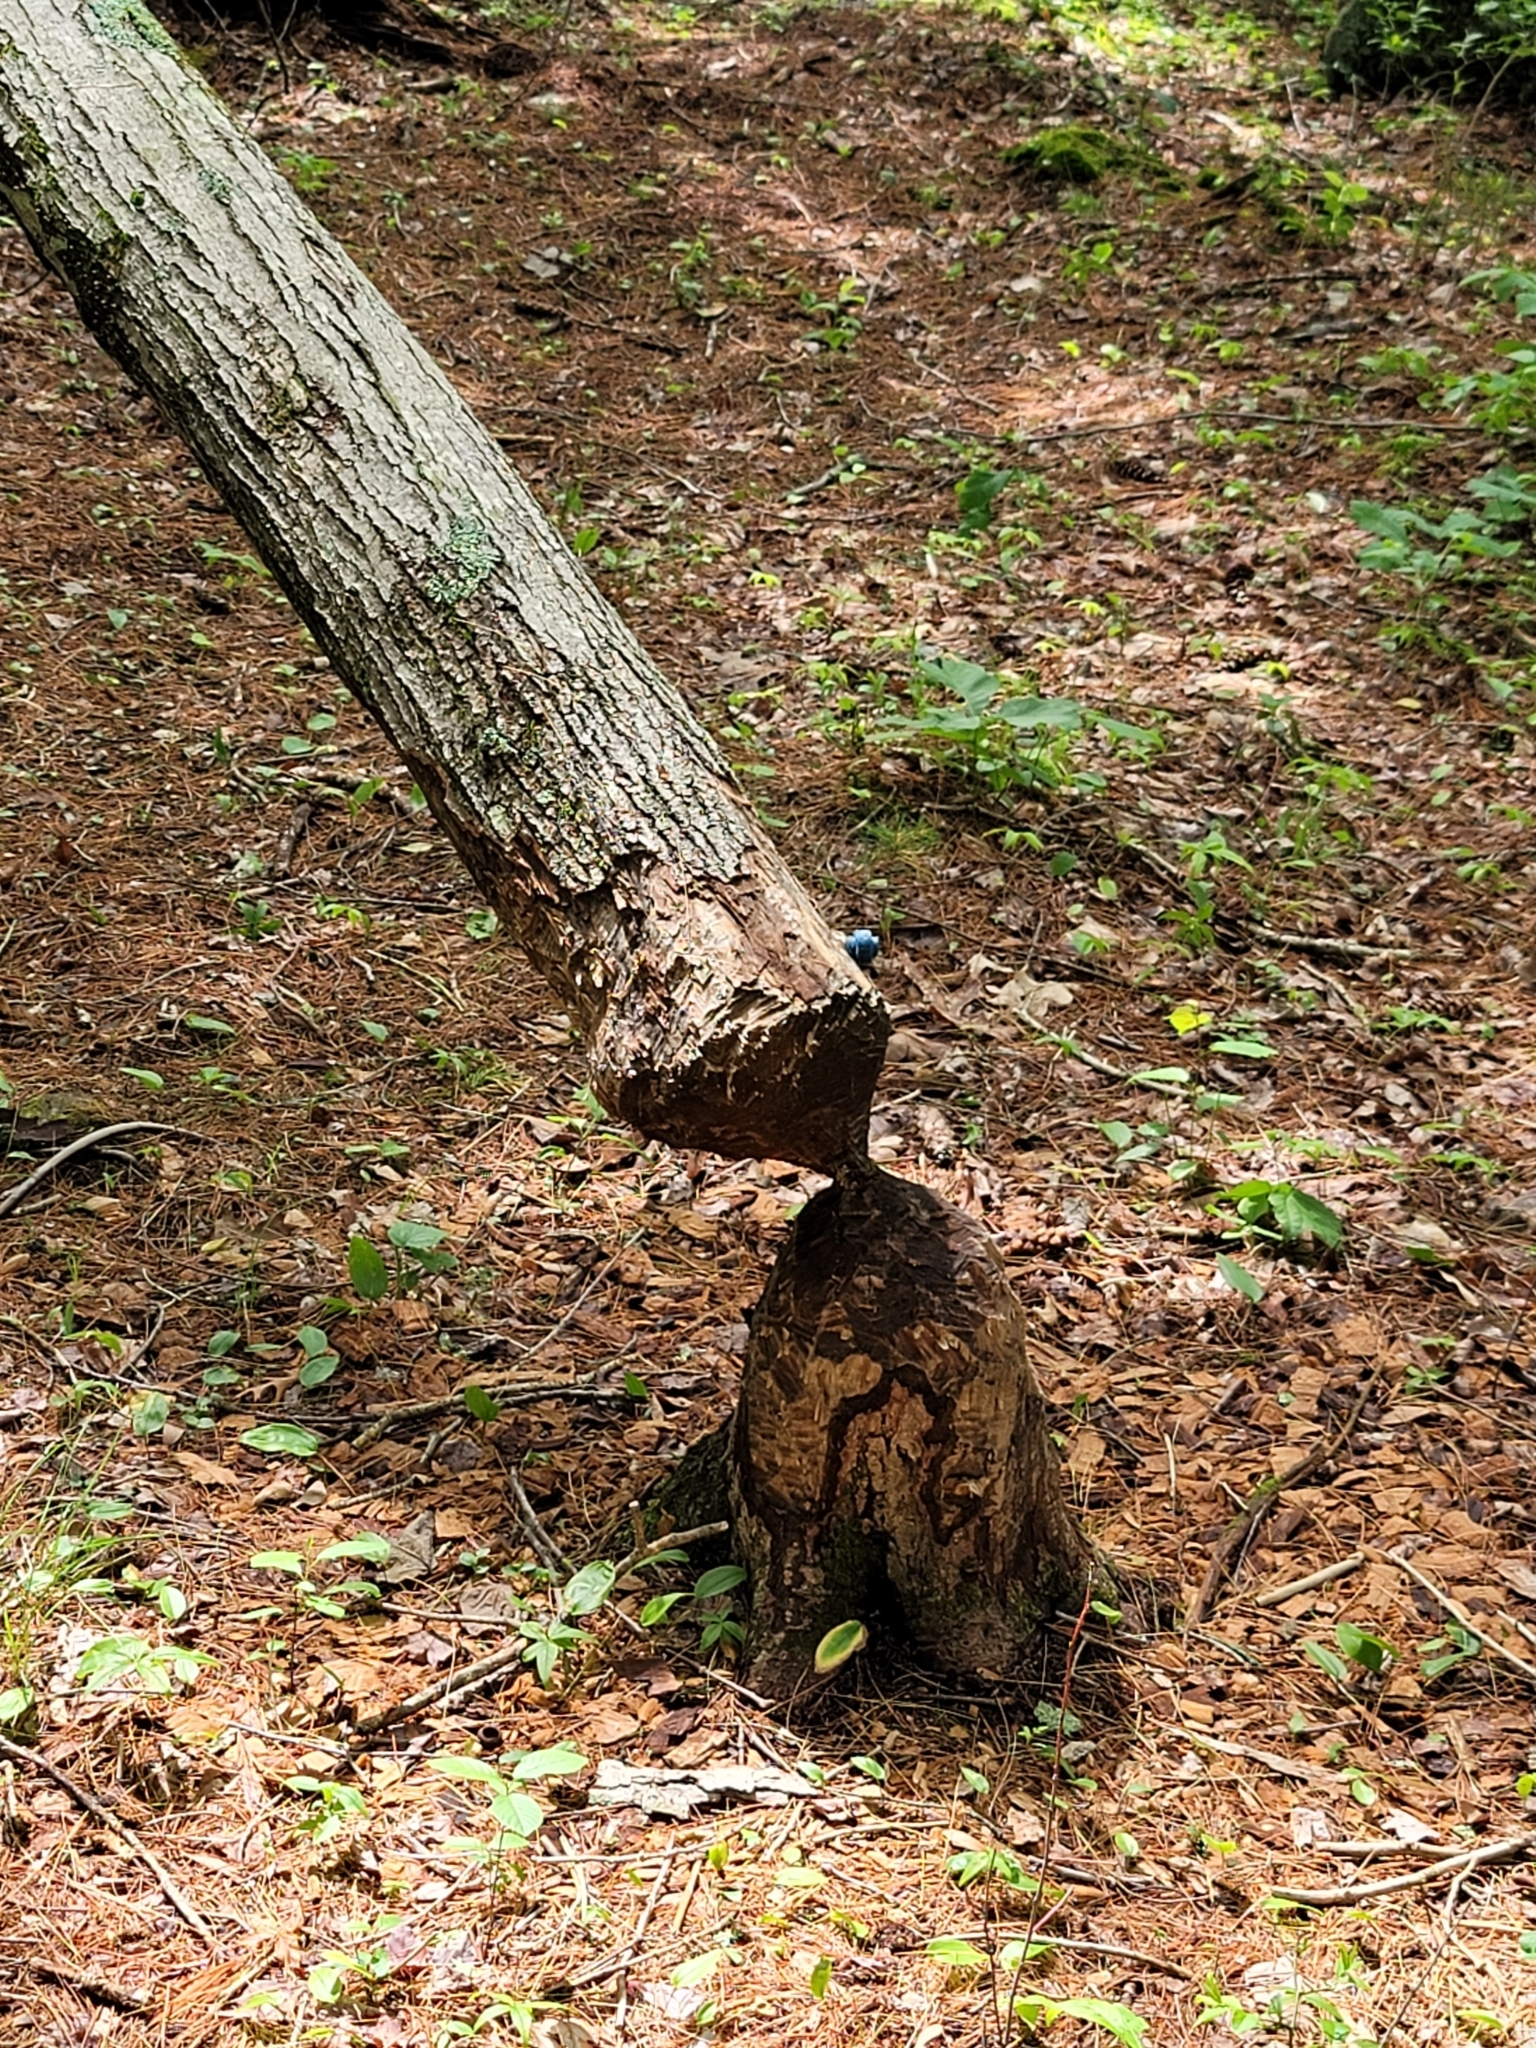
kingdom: Animalia
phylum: Chordata
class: Mammalia
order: Rodentia
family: Castoridae
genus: Castor
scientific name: Castor canadensis
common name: American beaver
